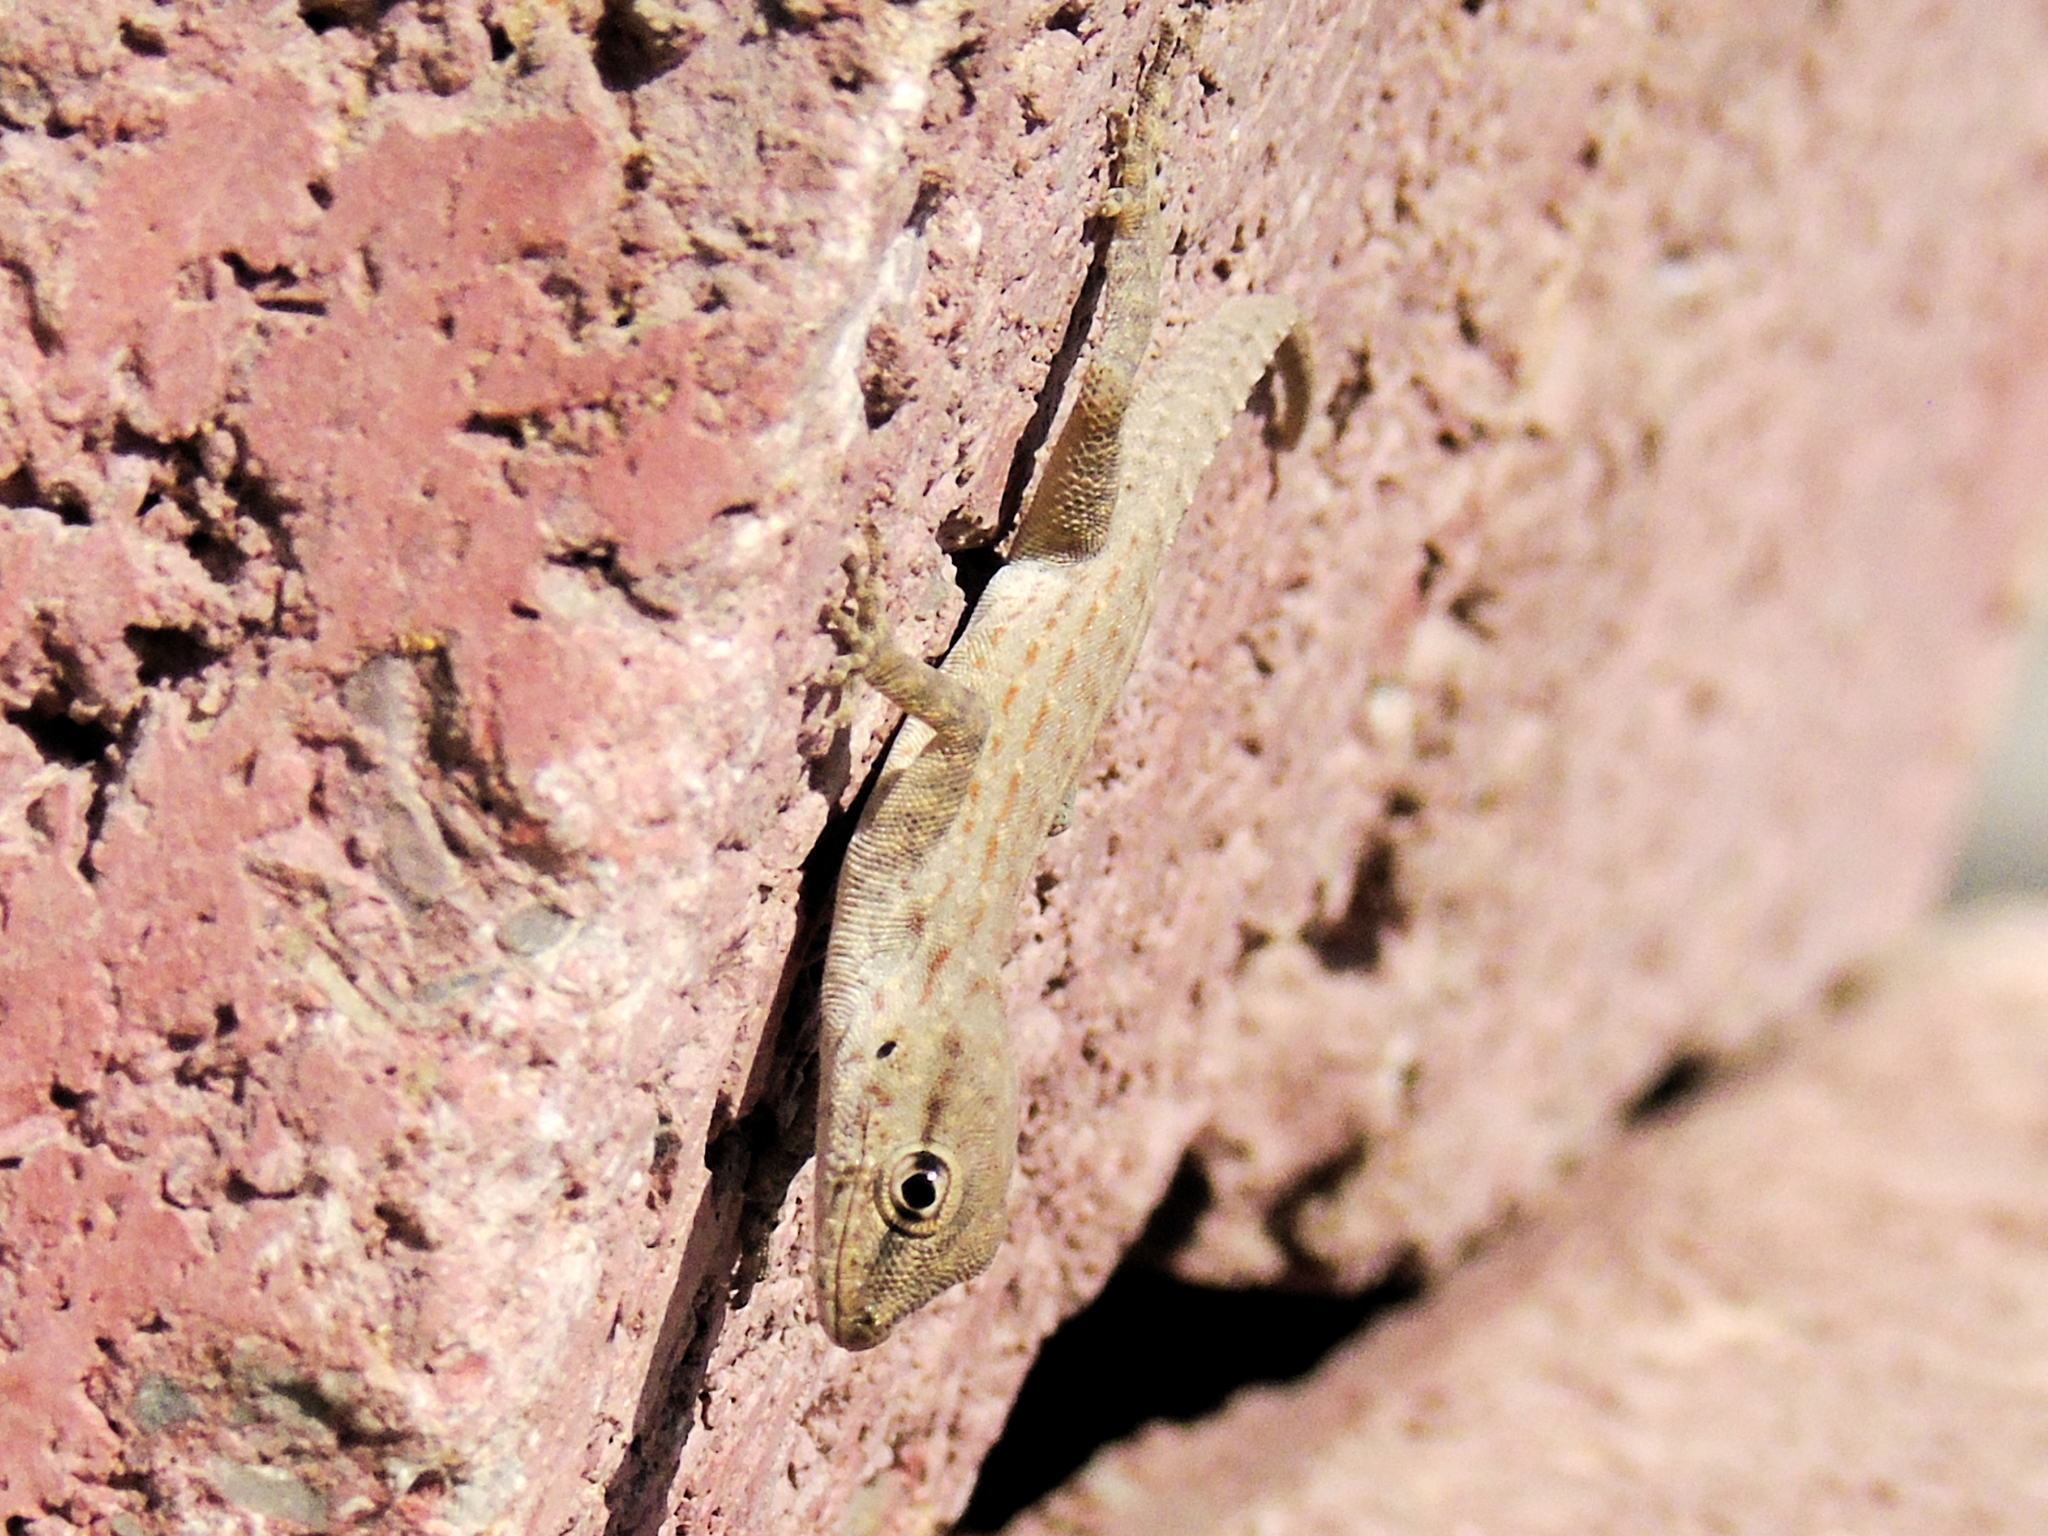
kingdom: Animalia
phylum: Chordata
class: Squamata
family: Sphaerodactylidae
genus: Pristurus
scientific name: Pristurus rupestris
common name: Blanford’s semaphore gecko
